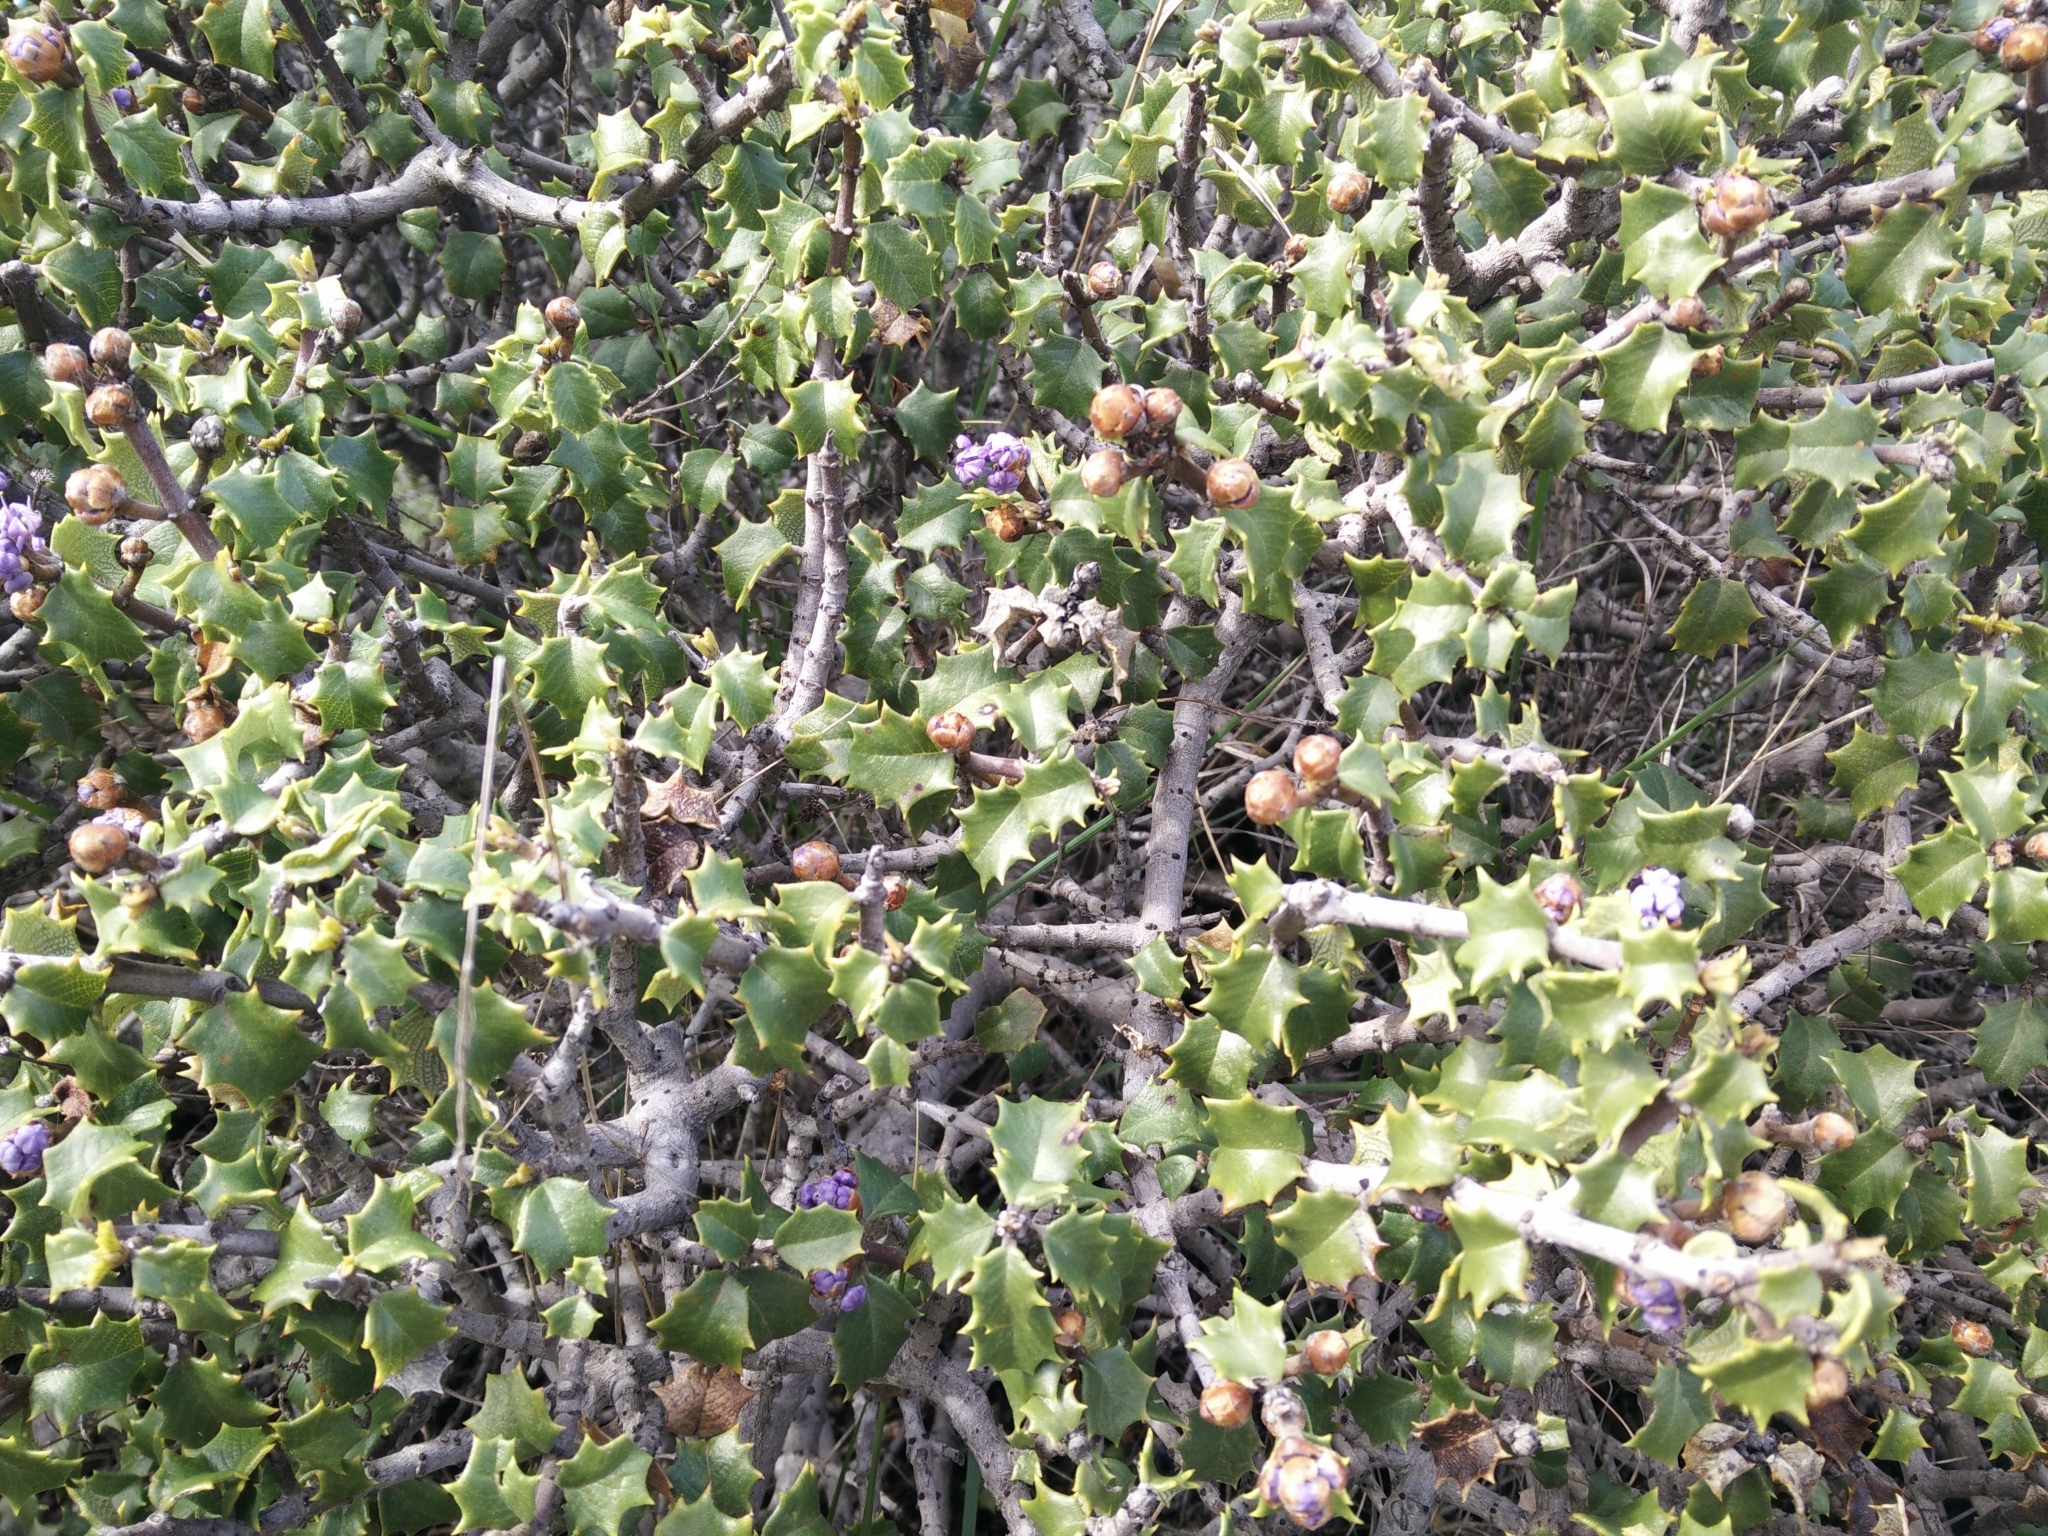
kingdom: Plantae
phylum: Tracheophyta
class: Magnoliopsida
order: Rosales
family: Rhamnaceae
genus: Ceanothus
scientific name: Ceanothus jepsonii
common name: Muskbrush
